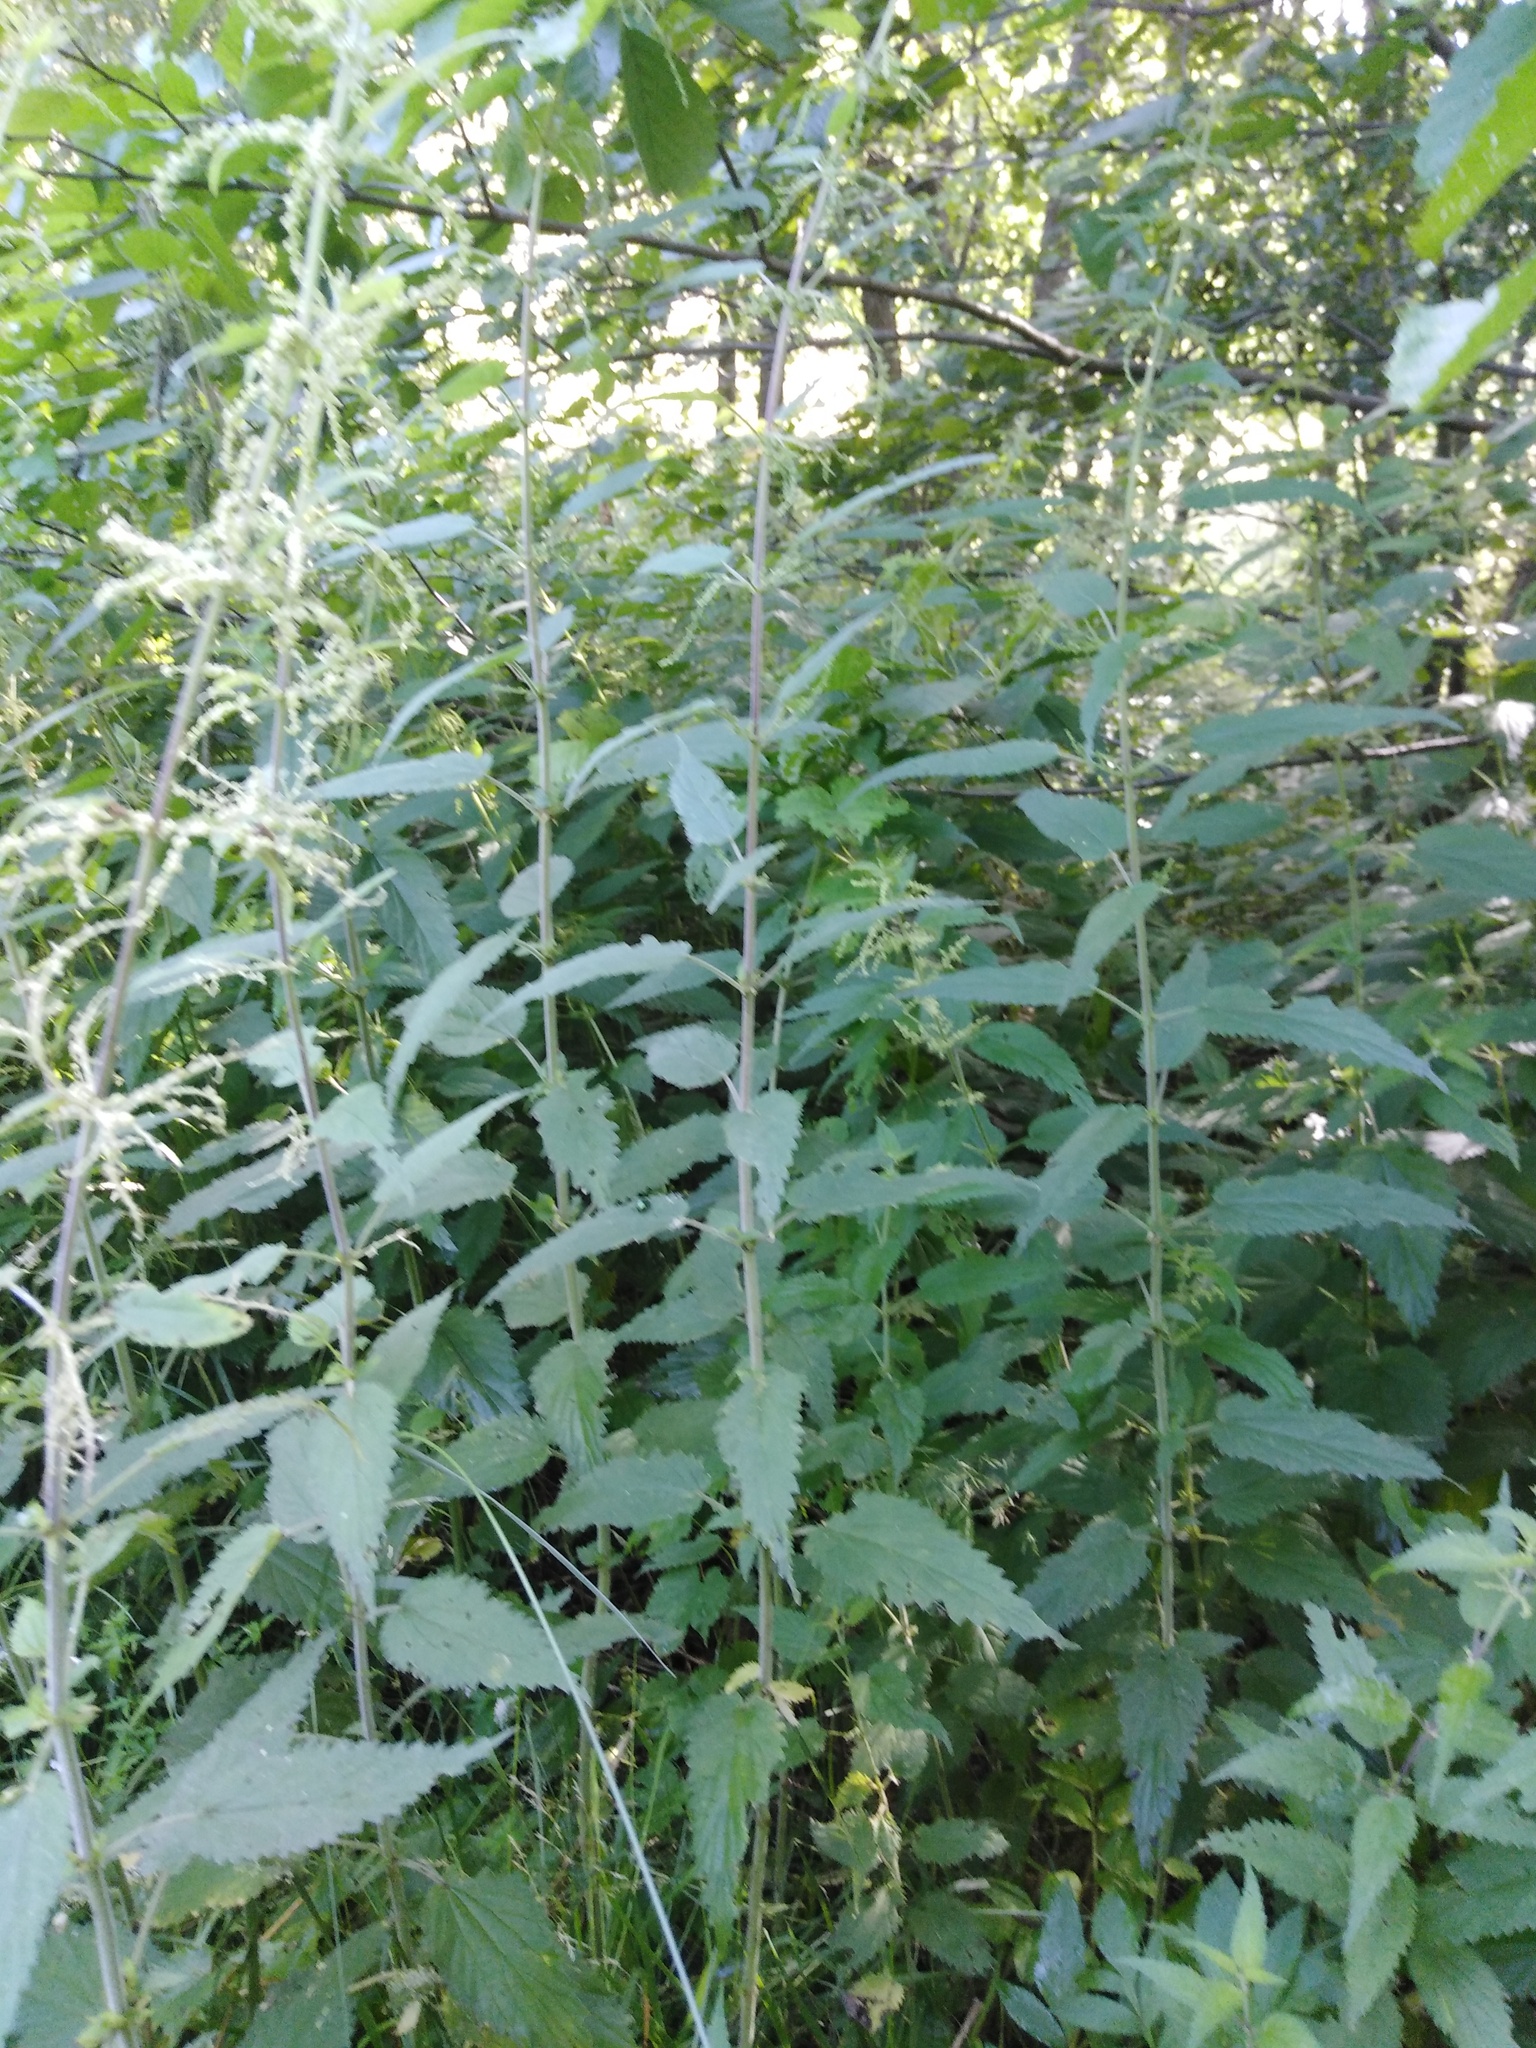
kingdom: Plantae
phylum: Tracheophyta
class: Magnoliopsida
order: Rosales
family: Urticaceae
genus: Urtica
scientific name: Urtica dioica
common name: Common nettle
